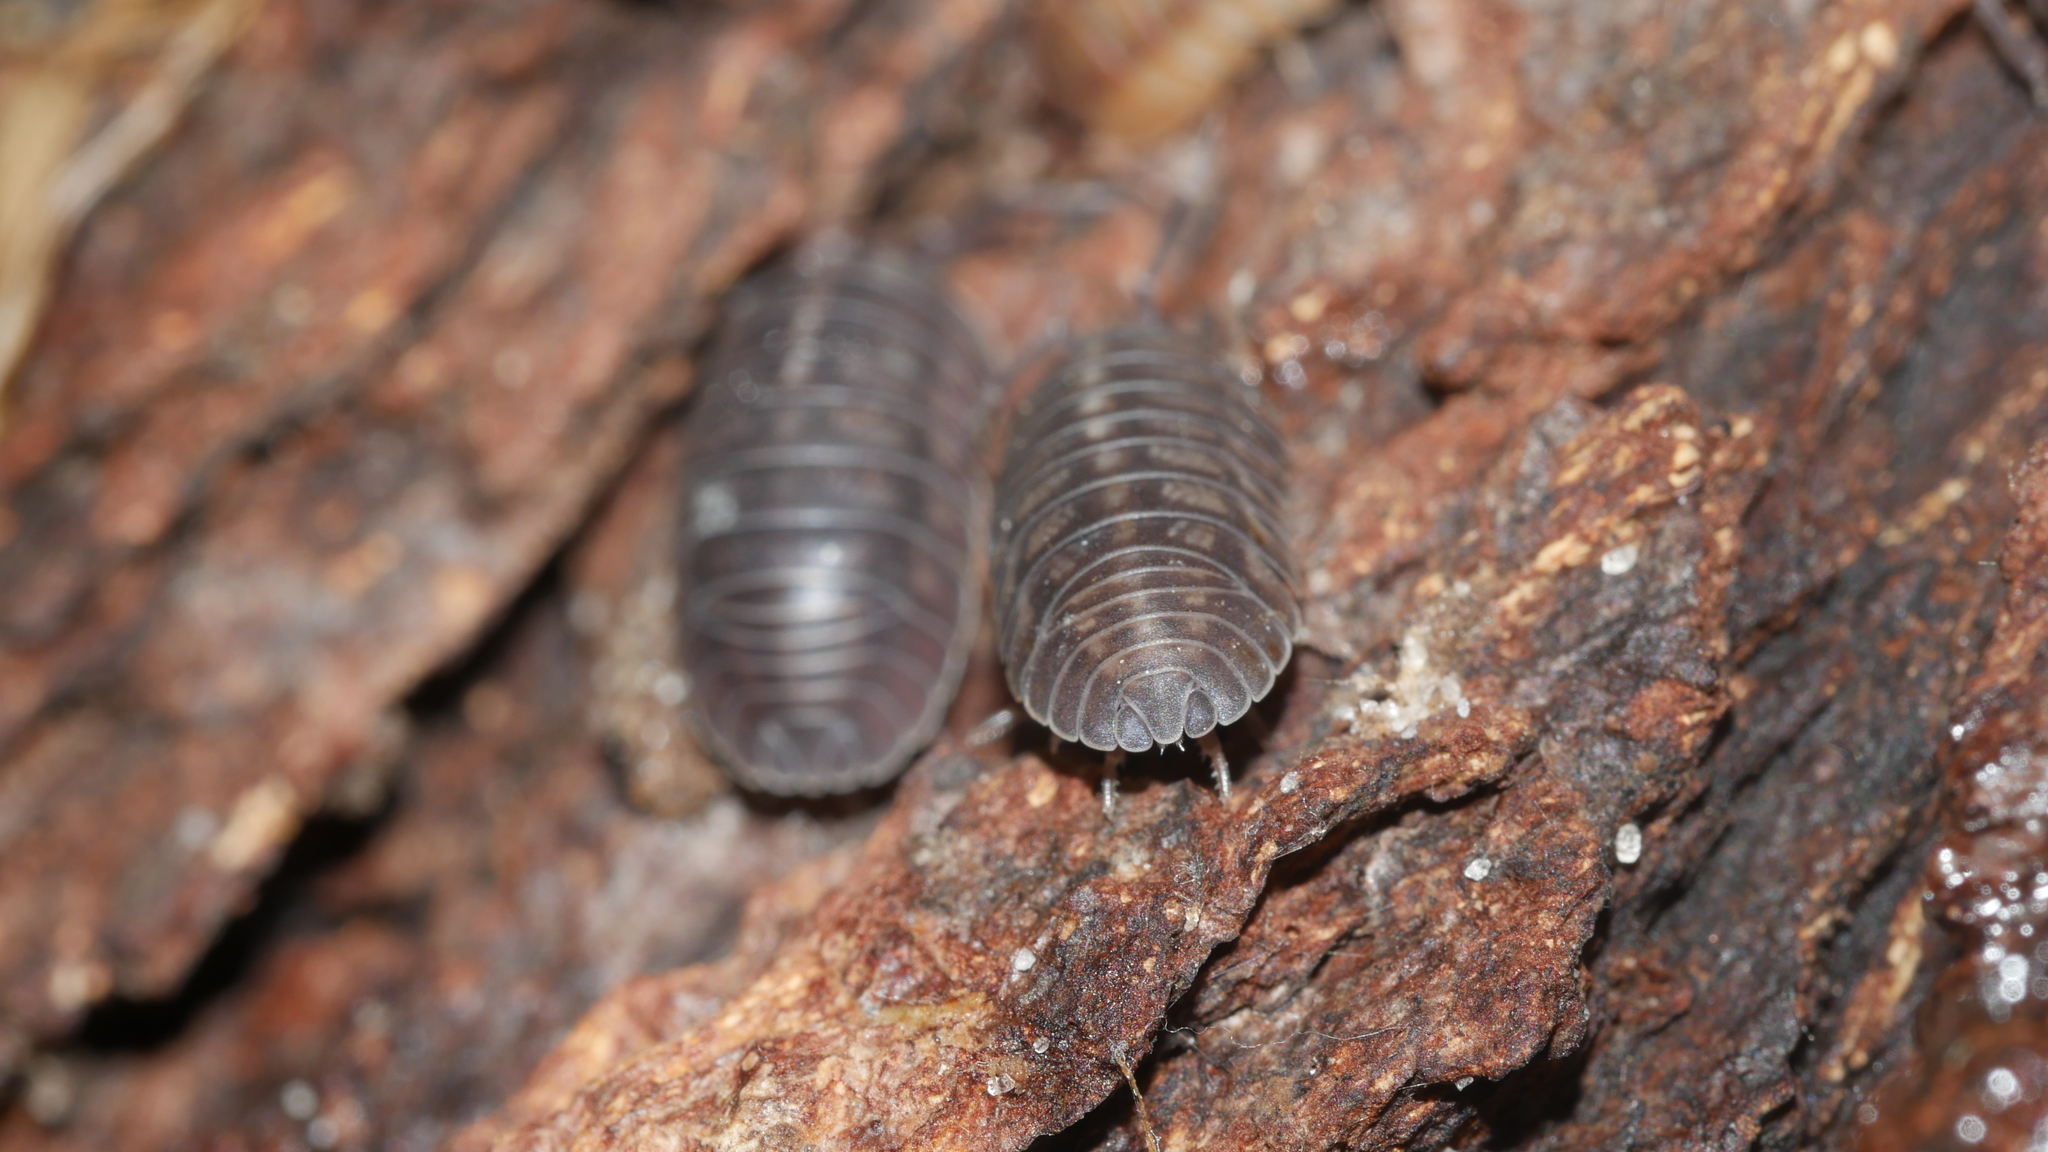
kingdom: Animalia
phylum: Arthropoda
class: Malacostraca
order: Isopoda
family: Armadillidiidae
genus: Armadillidium
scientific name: Armadillidium nasatum
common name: Isopod
